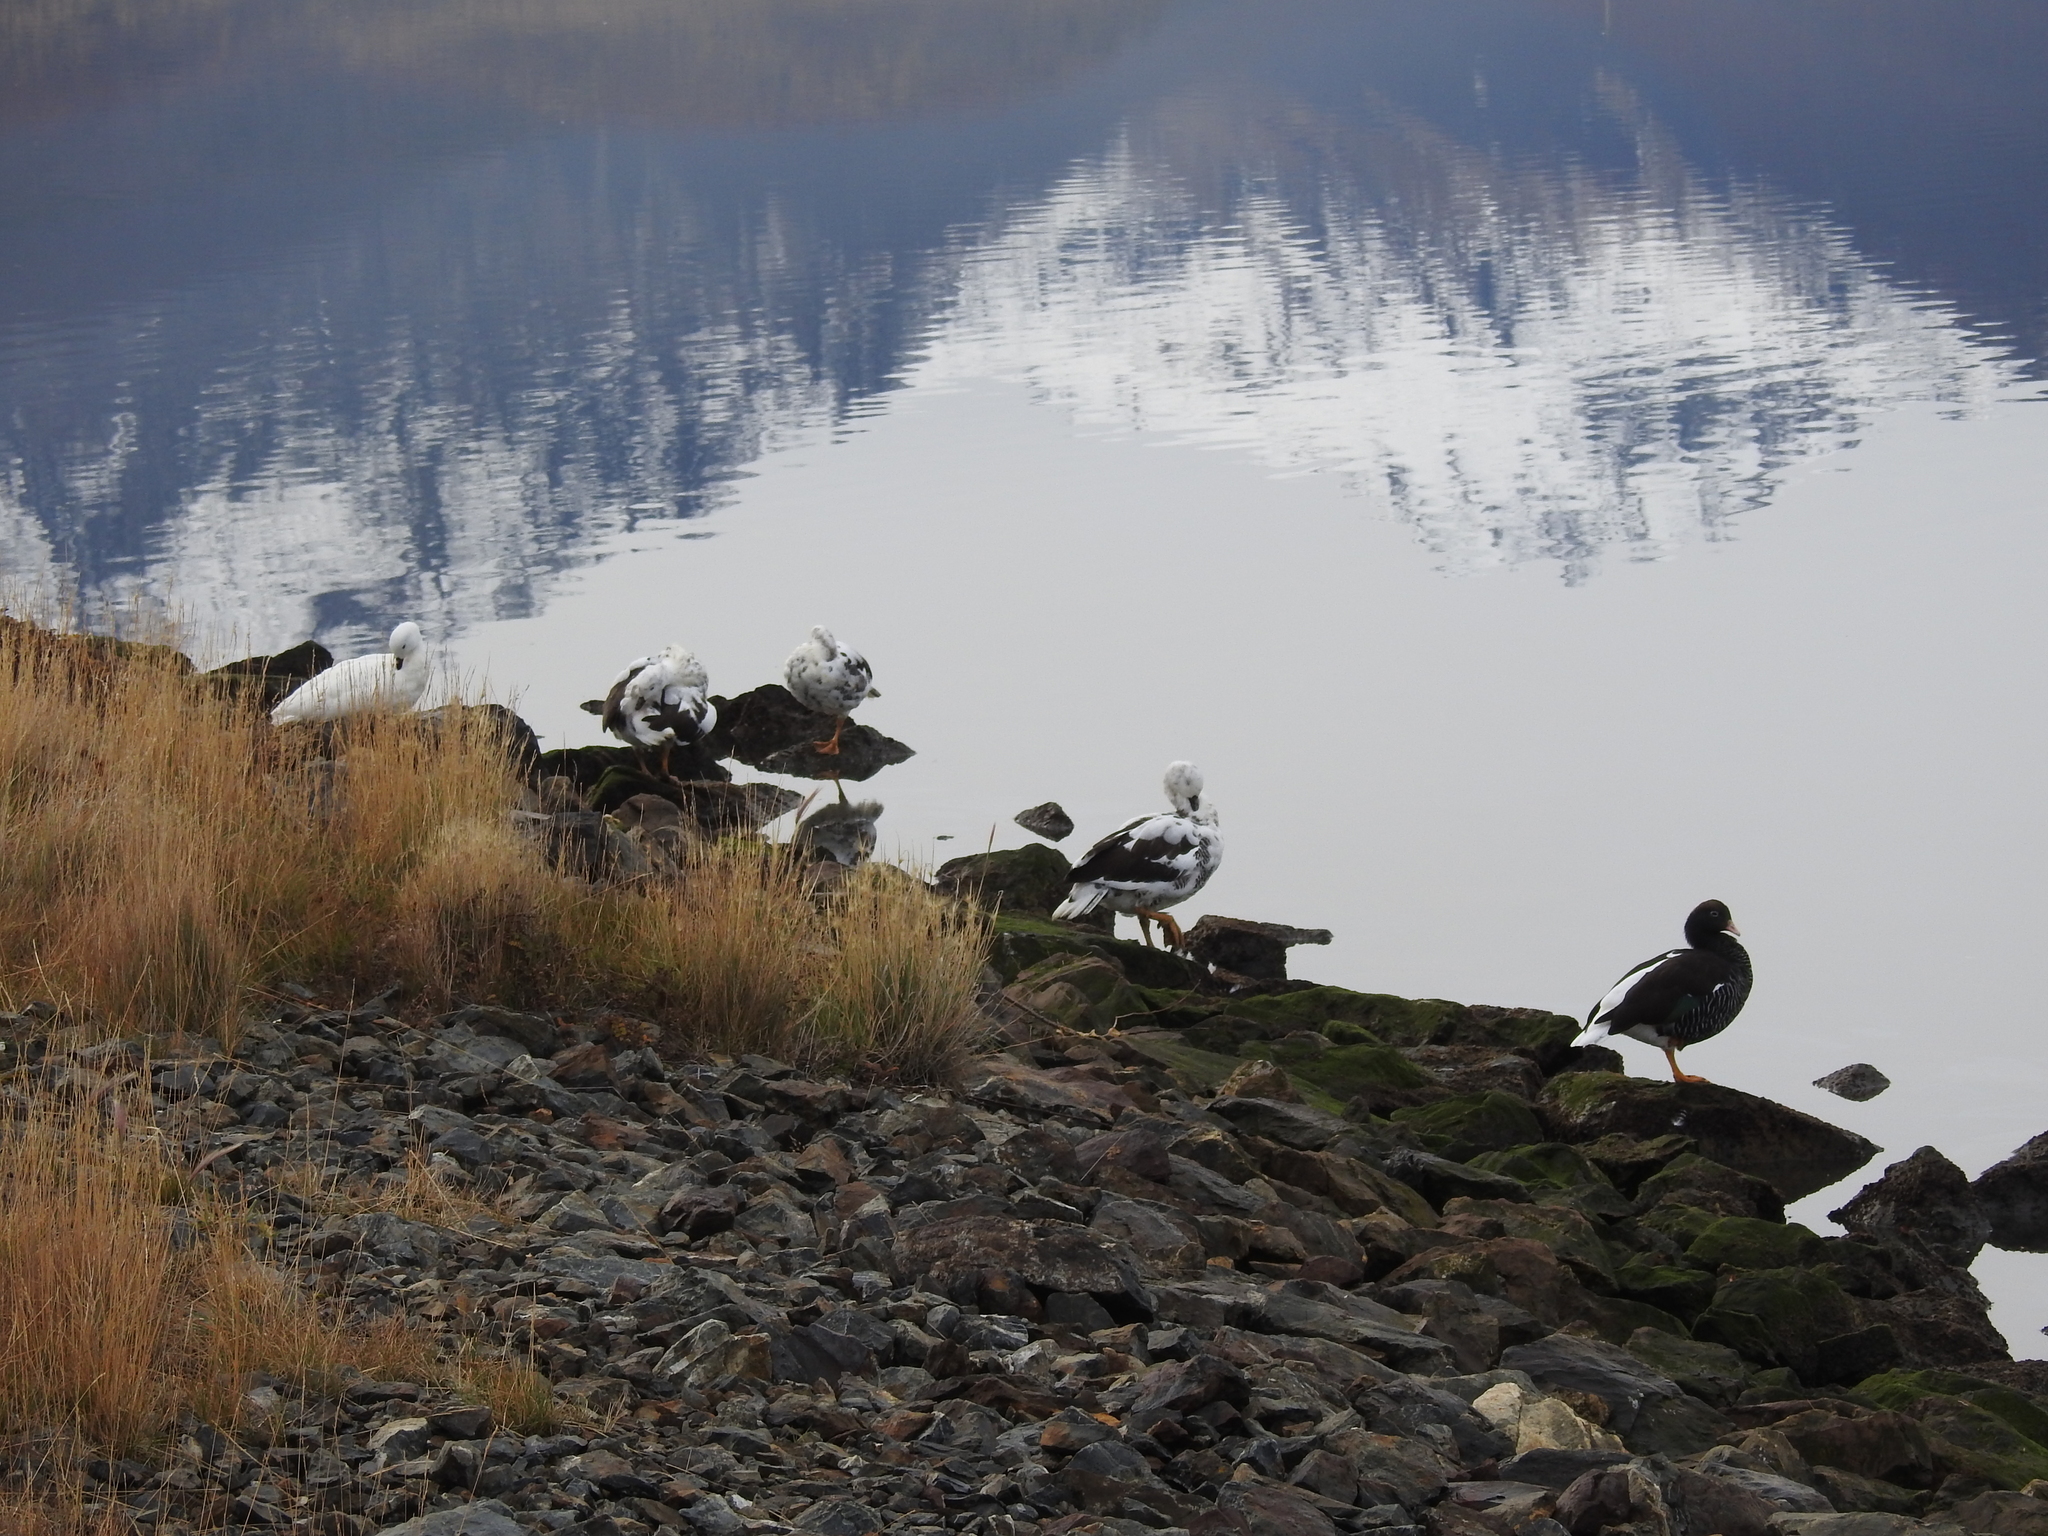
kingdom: Animalia
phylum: Chordata
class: Aves
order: Anseriformes
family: Anatidae
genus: Chloephaga
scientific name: Chloephaga hybrida
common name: Kelp goose
